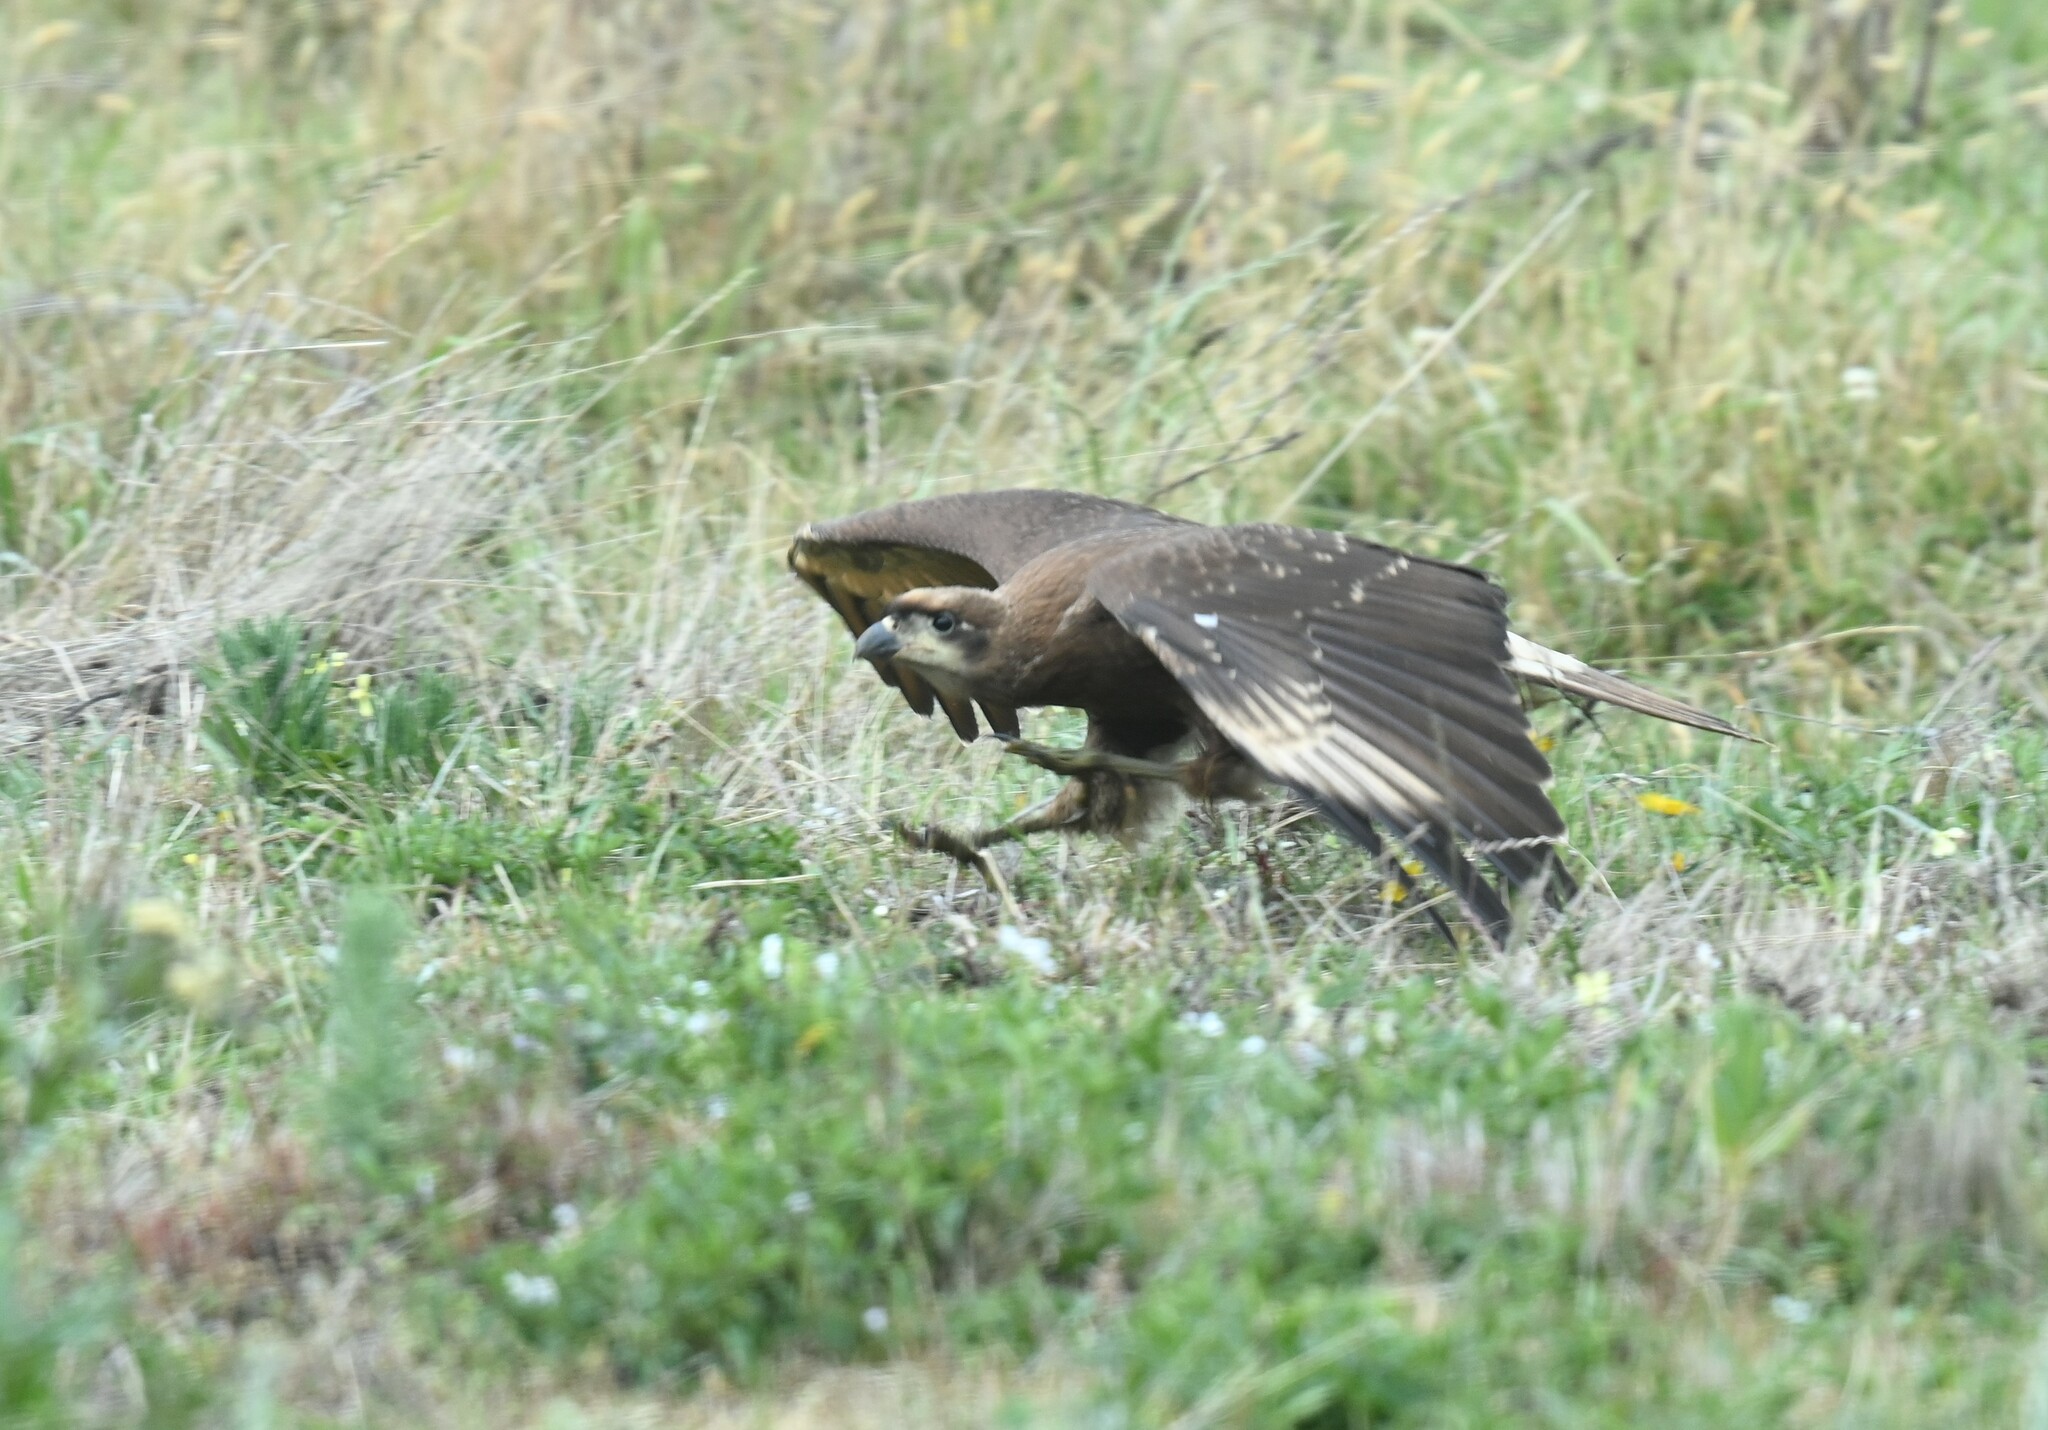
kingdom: Animalia
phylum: Chordata
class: Aves
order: Falconiformes
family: Falconidae
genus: Daptrius
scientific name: Daptrius
